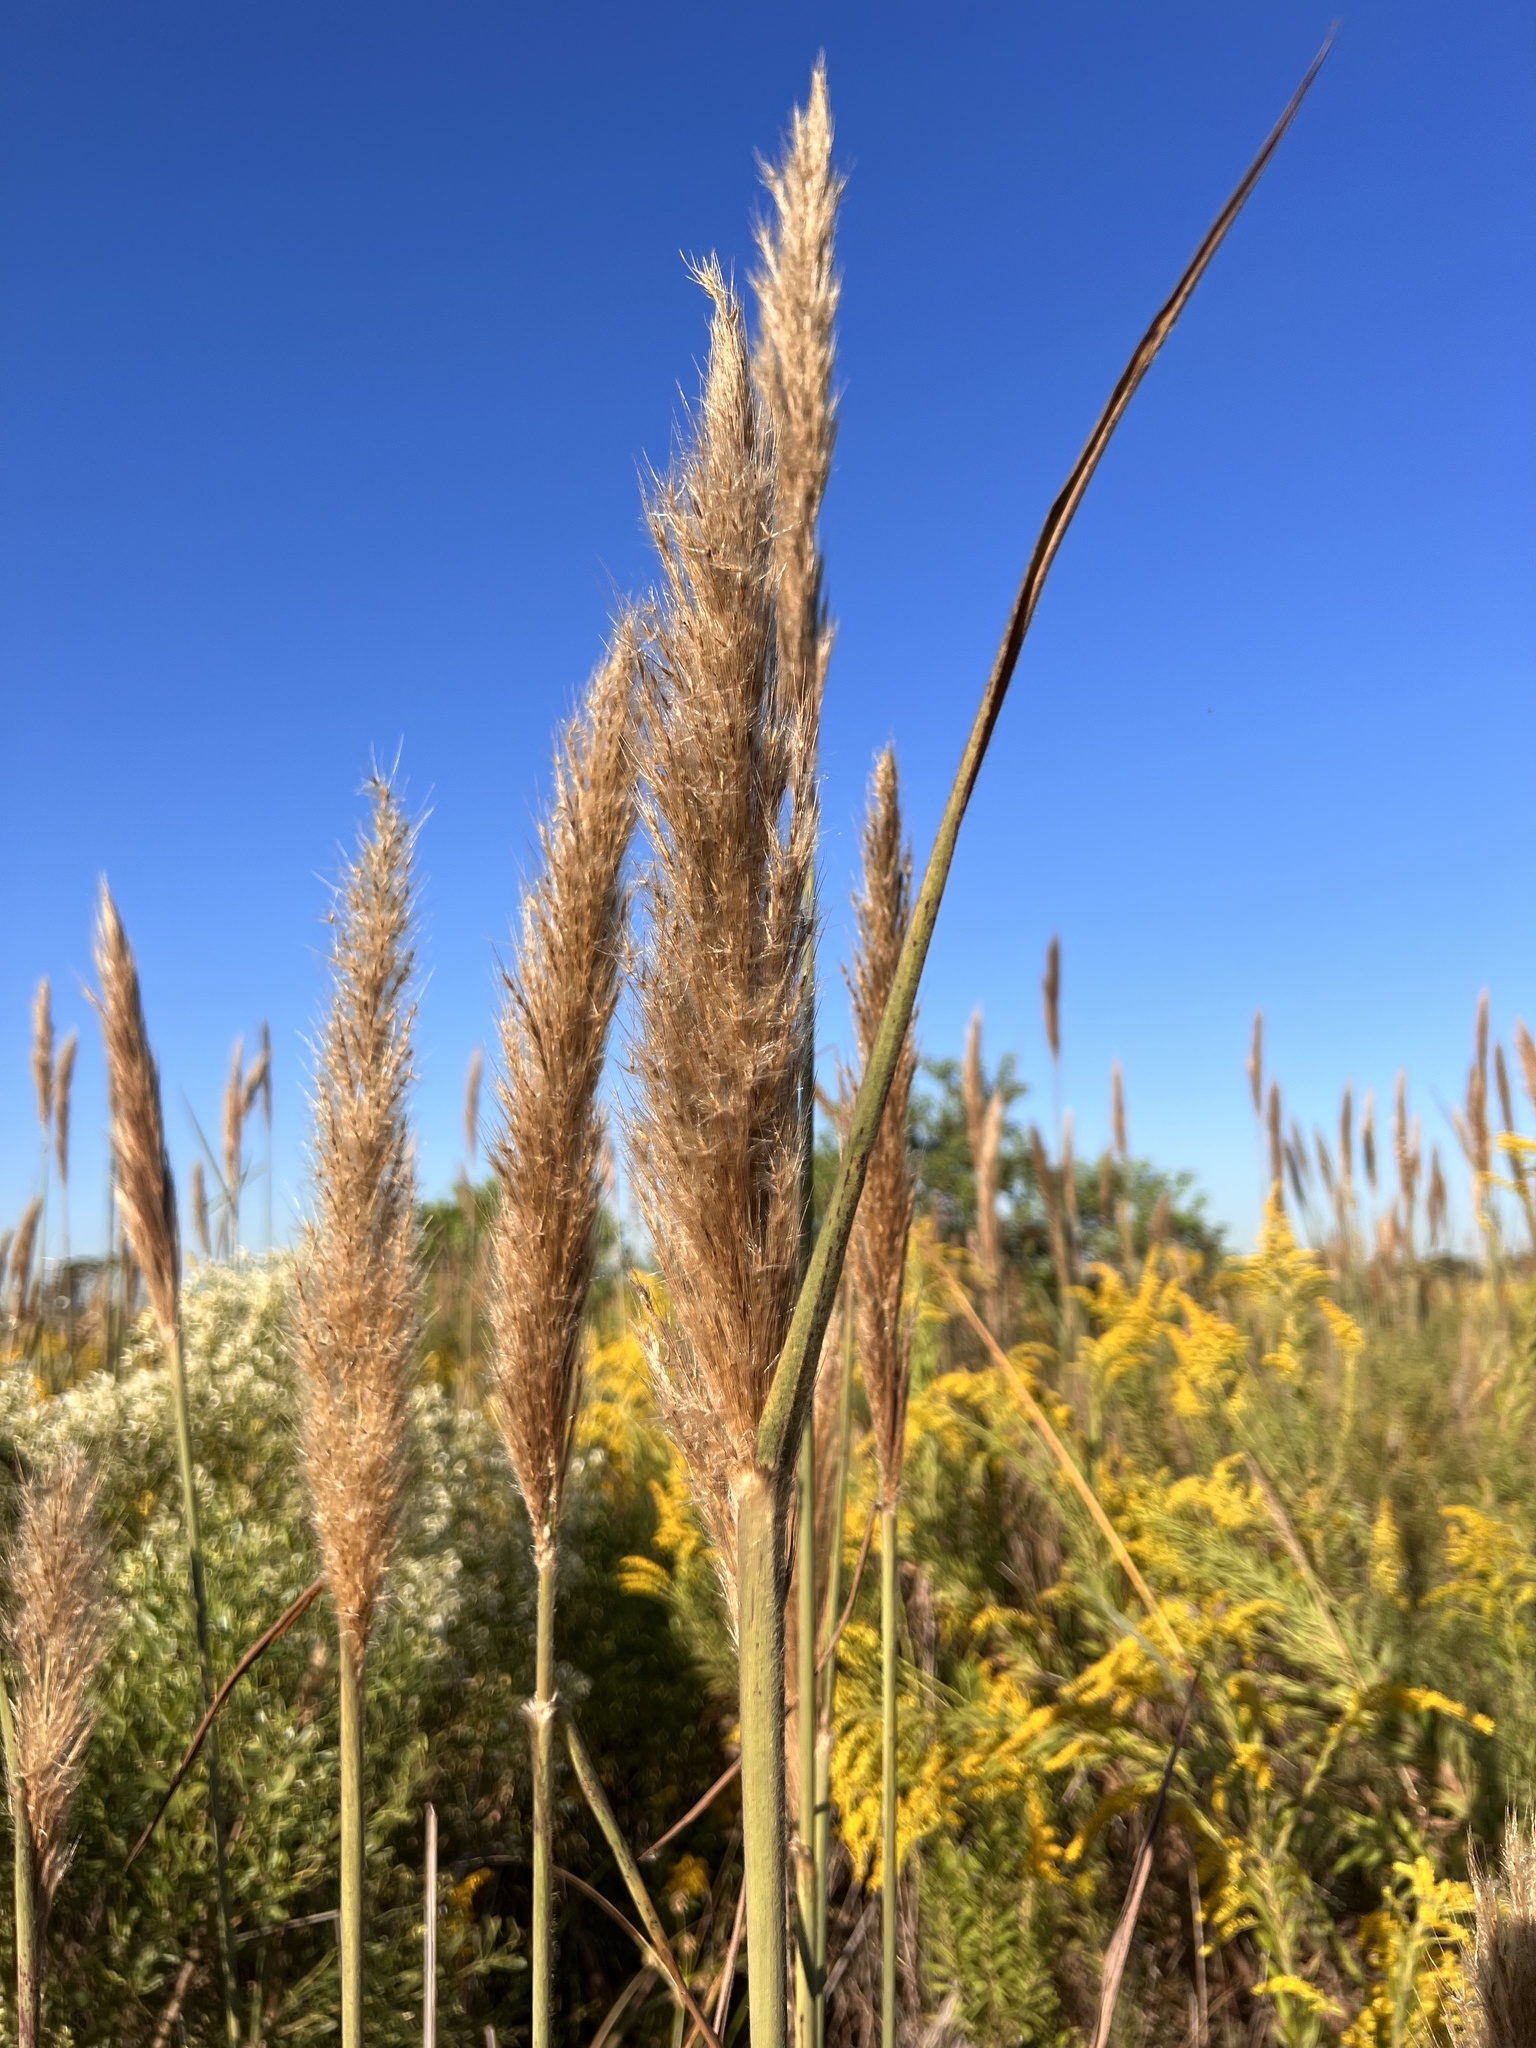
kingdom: Plantae
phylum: Tracheophyta
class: Liliopsida
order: Poales
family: Poaceae
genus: Erianthus
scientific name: Erianthus giganteus
